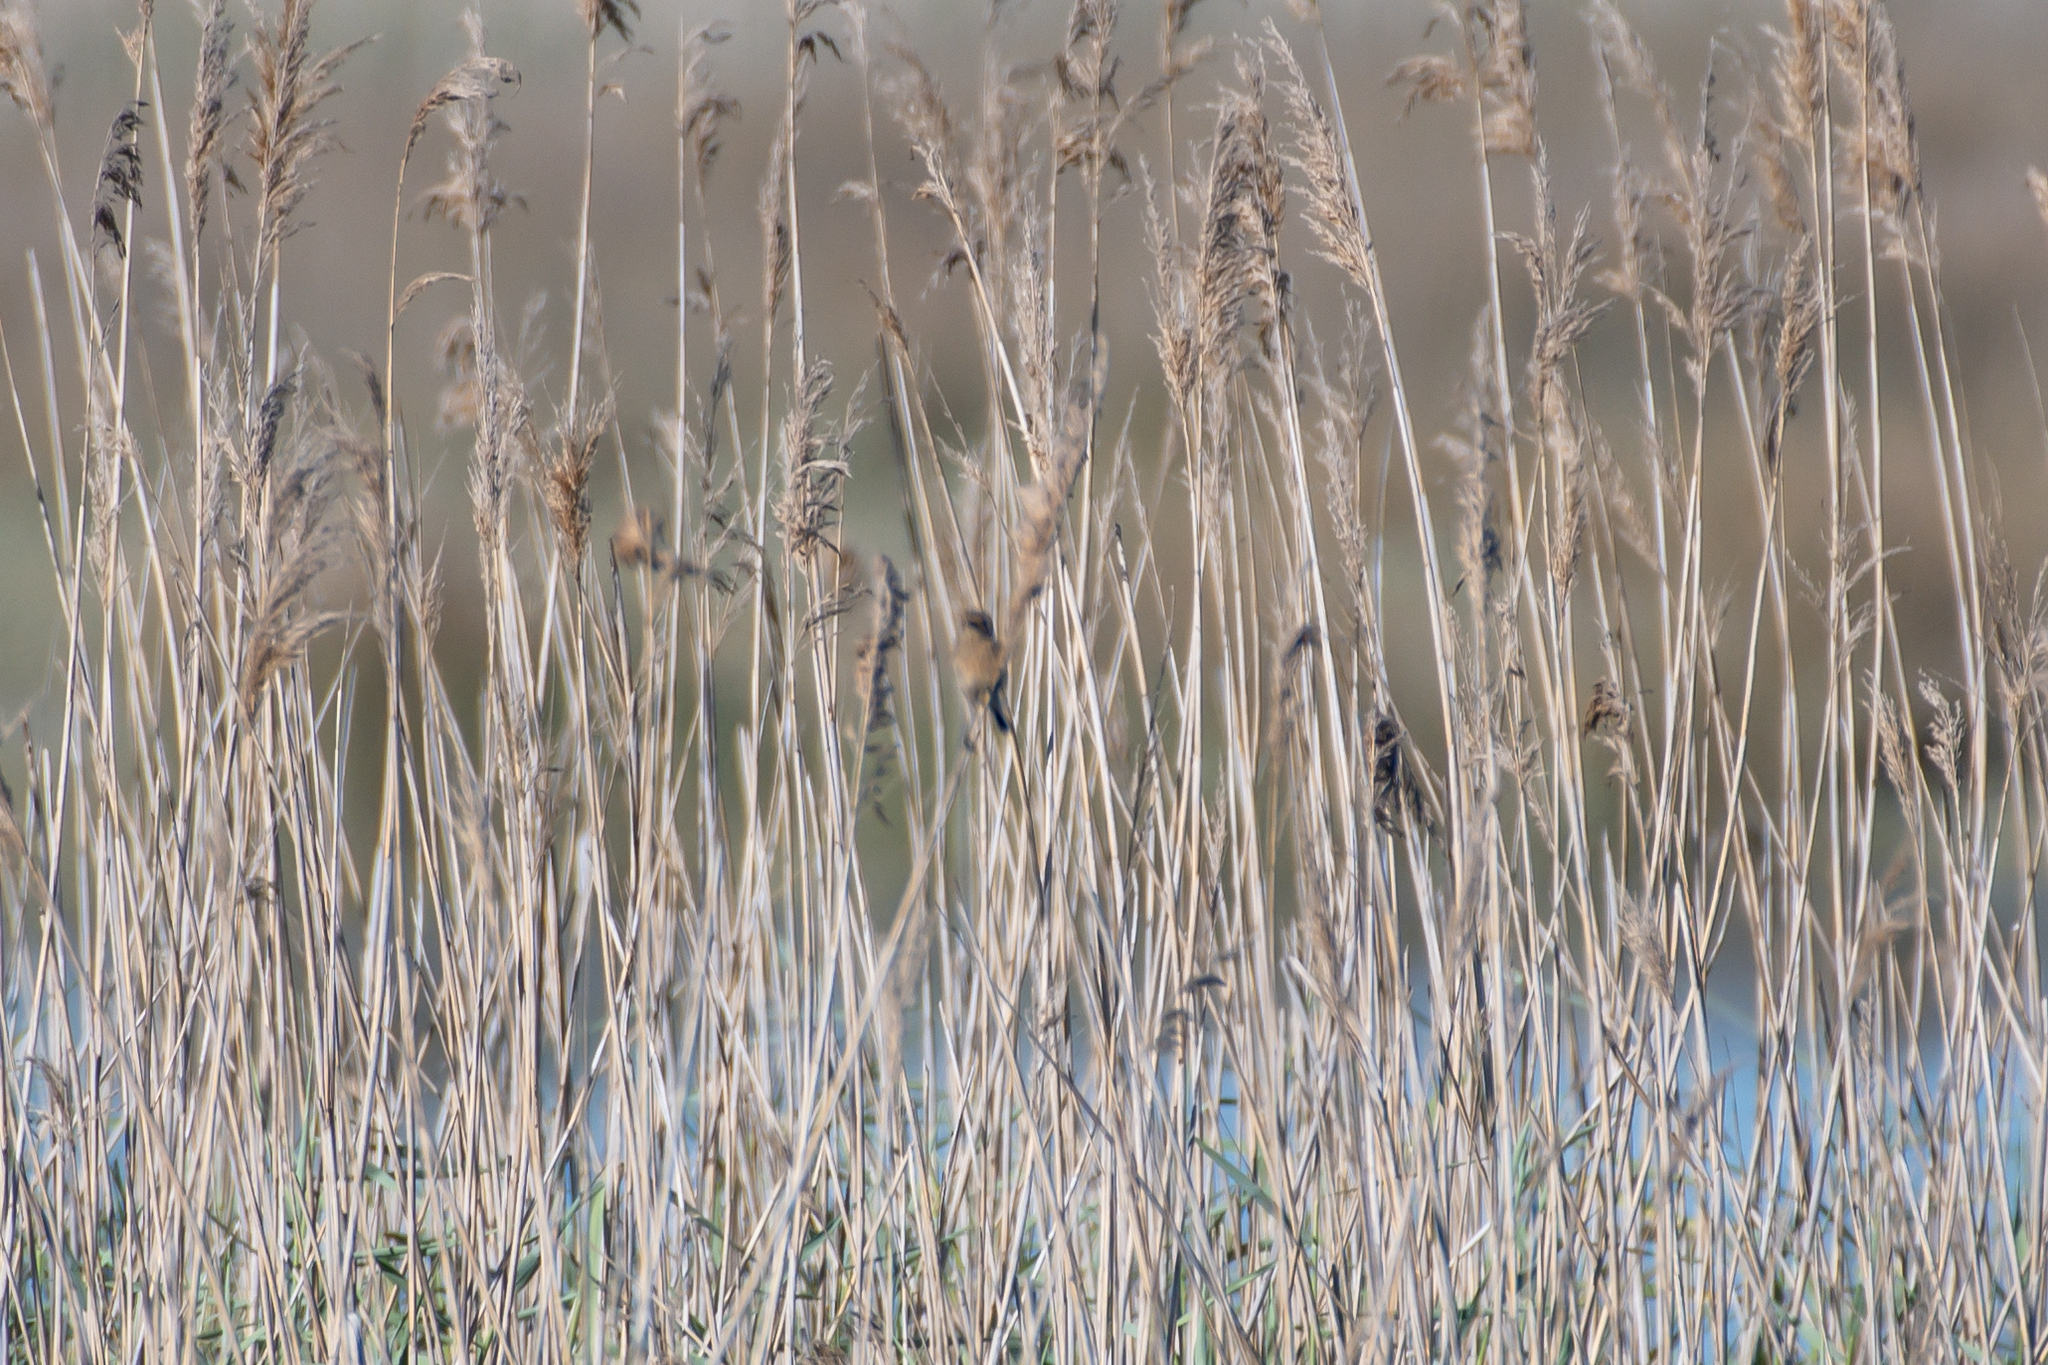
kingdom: Animalia
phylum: Chordata
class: Aves
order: Passeriformes
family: Muscicapidae
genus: Saxicola
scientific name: Saxicola rubicola
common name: European stonechat
